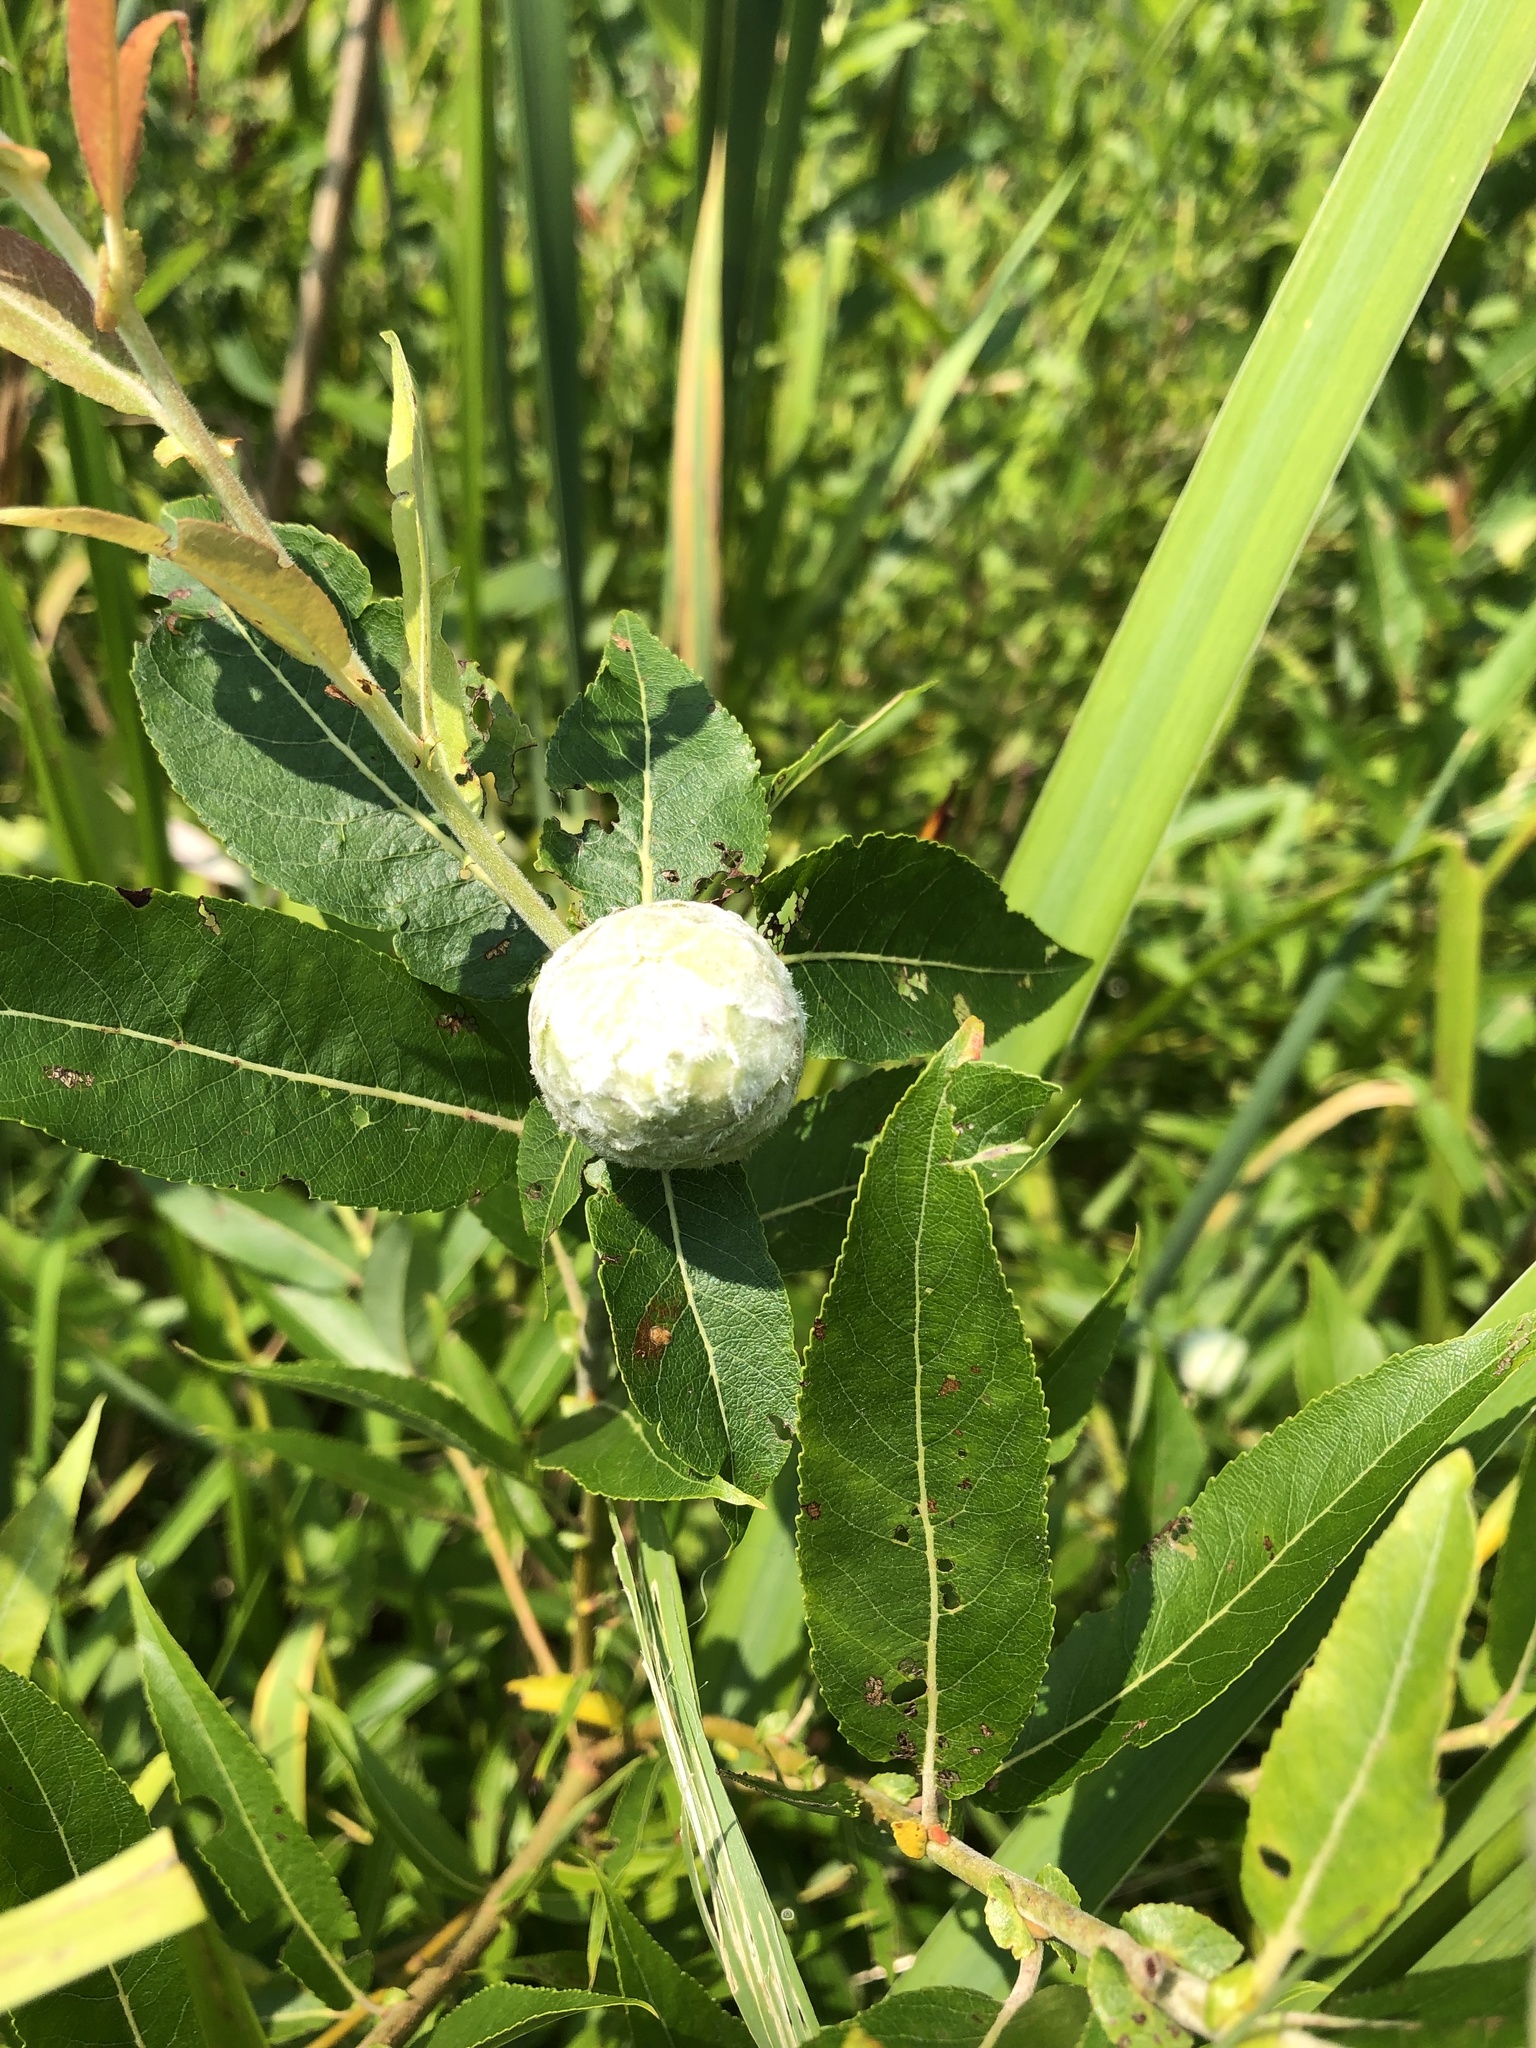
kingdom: Animalia
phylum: Arthropoda
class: Insecta
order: Diptera
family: Cecidomyiidae
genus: Rabdophaga
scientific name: Rabdophaga strobiloides
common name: Willow pinecone gall midge
